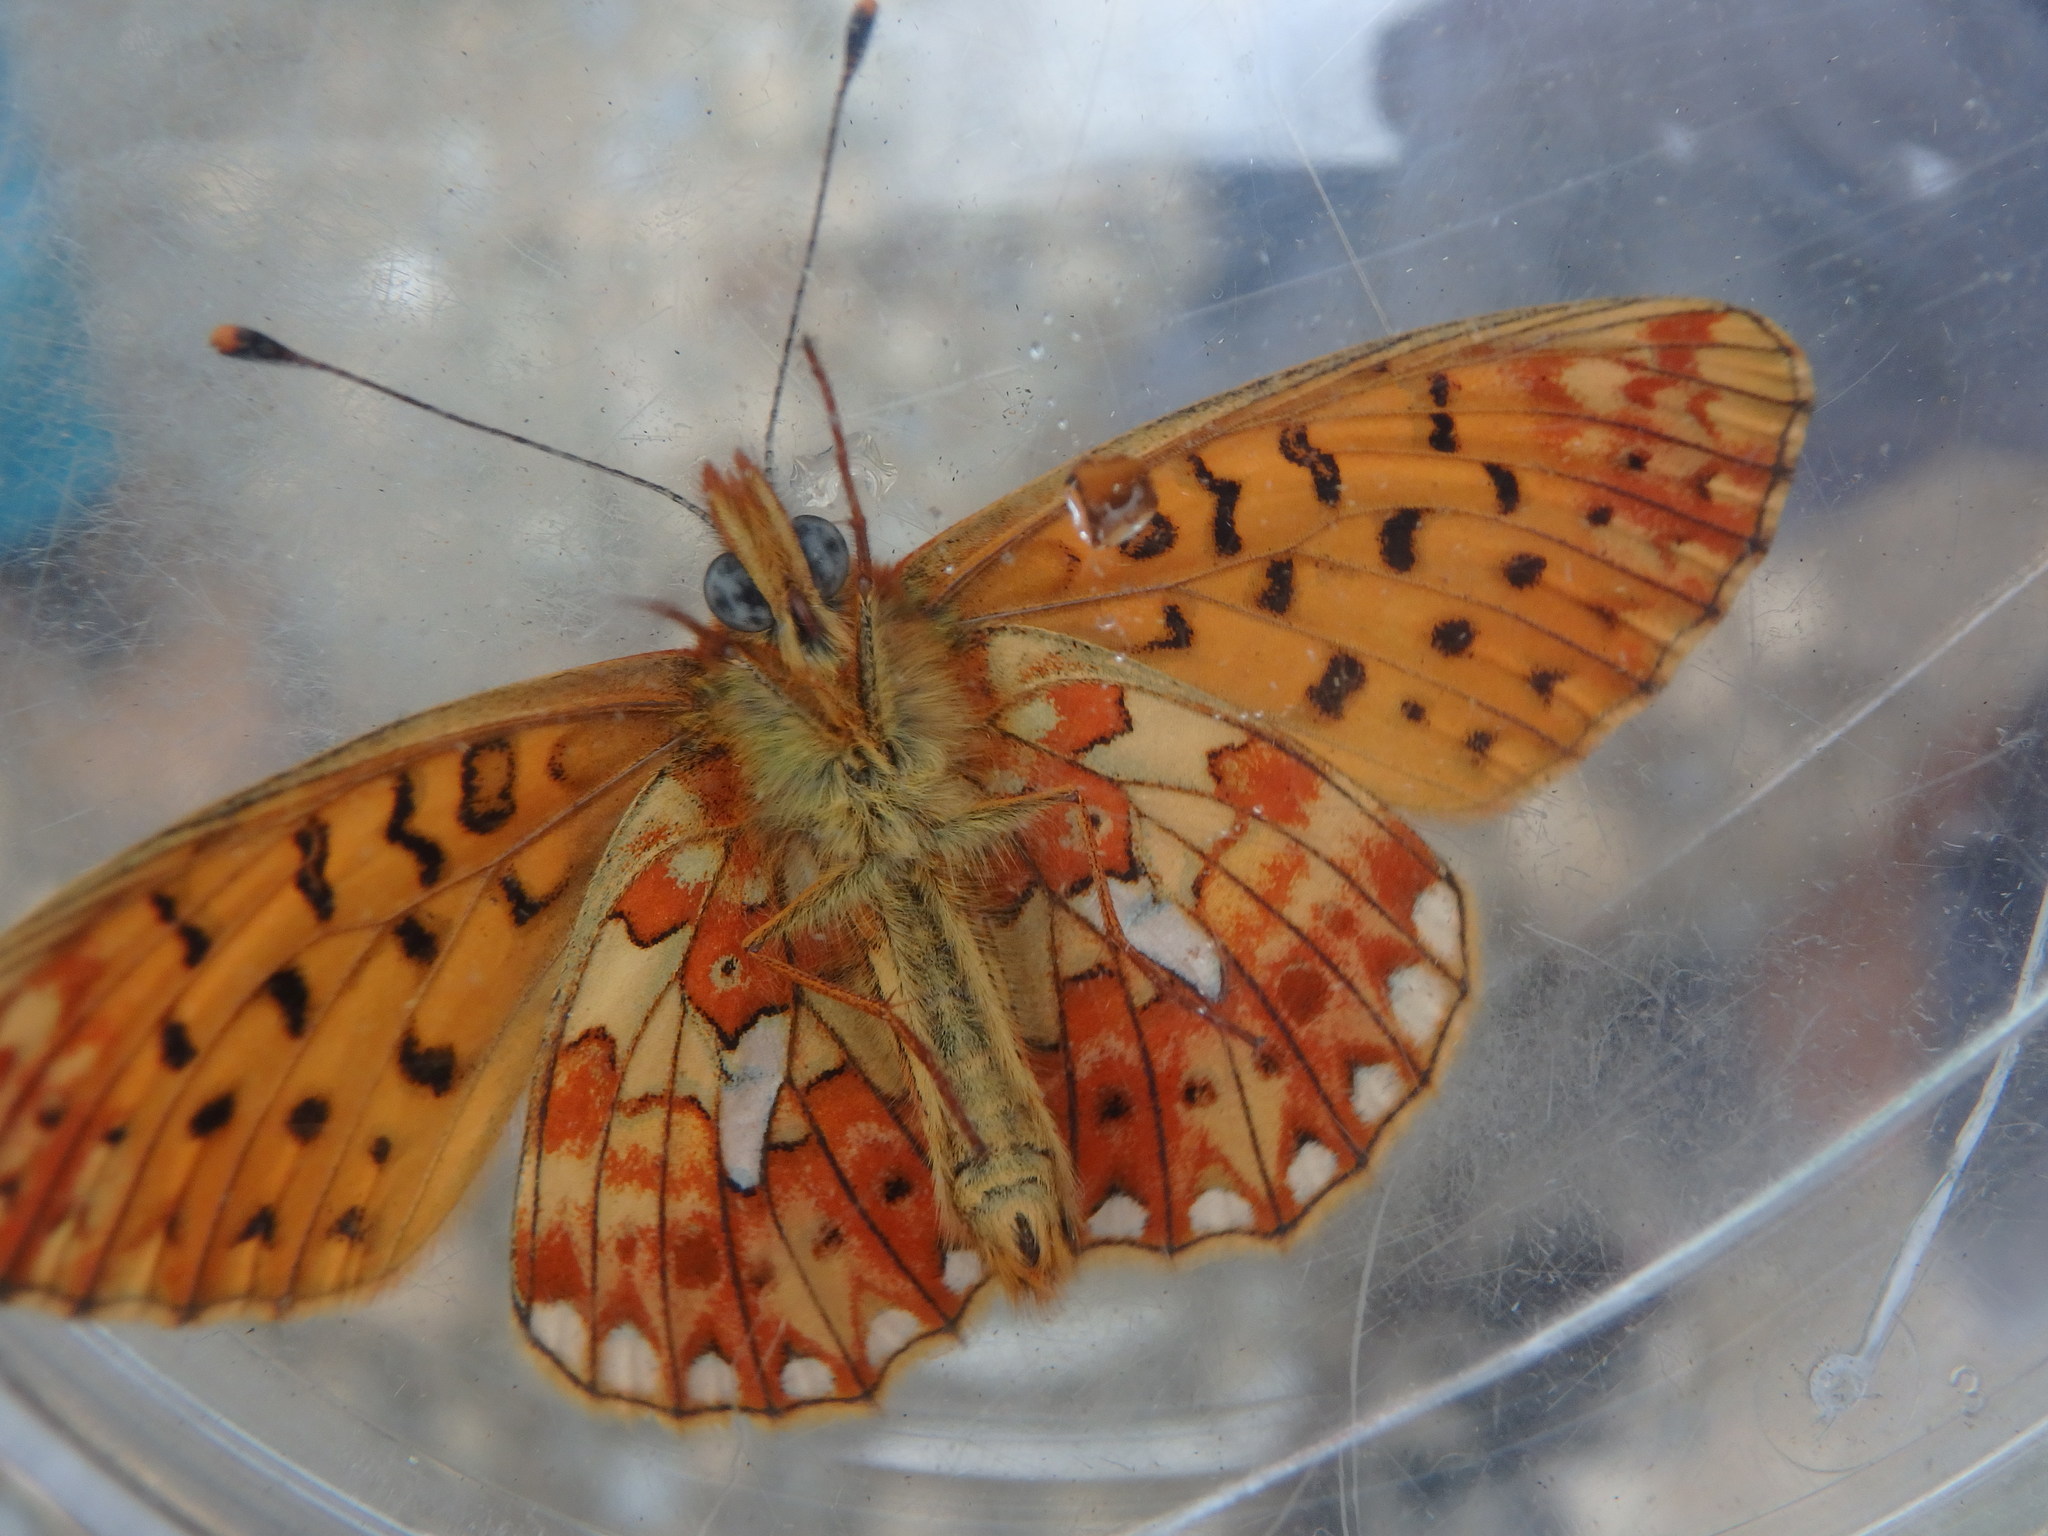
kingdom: Animalia
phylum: Arthropoda
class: Insecta
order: Lepidoptera
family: Nymphalidae
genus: Clossiana
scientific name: Clossiana euphrosyne
